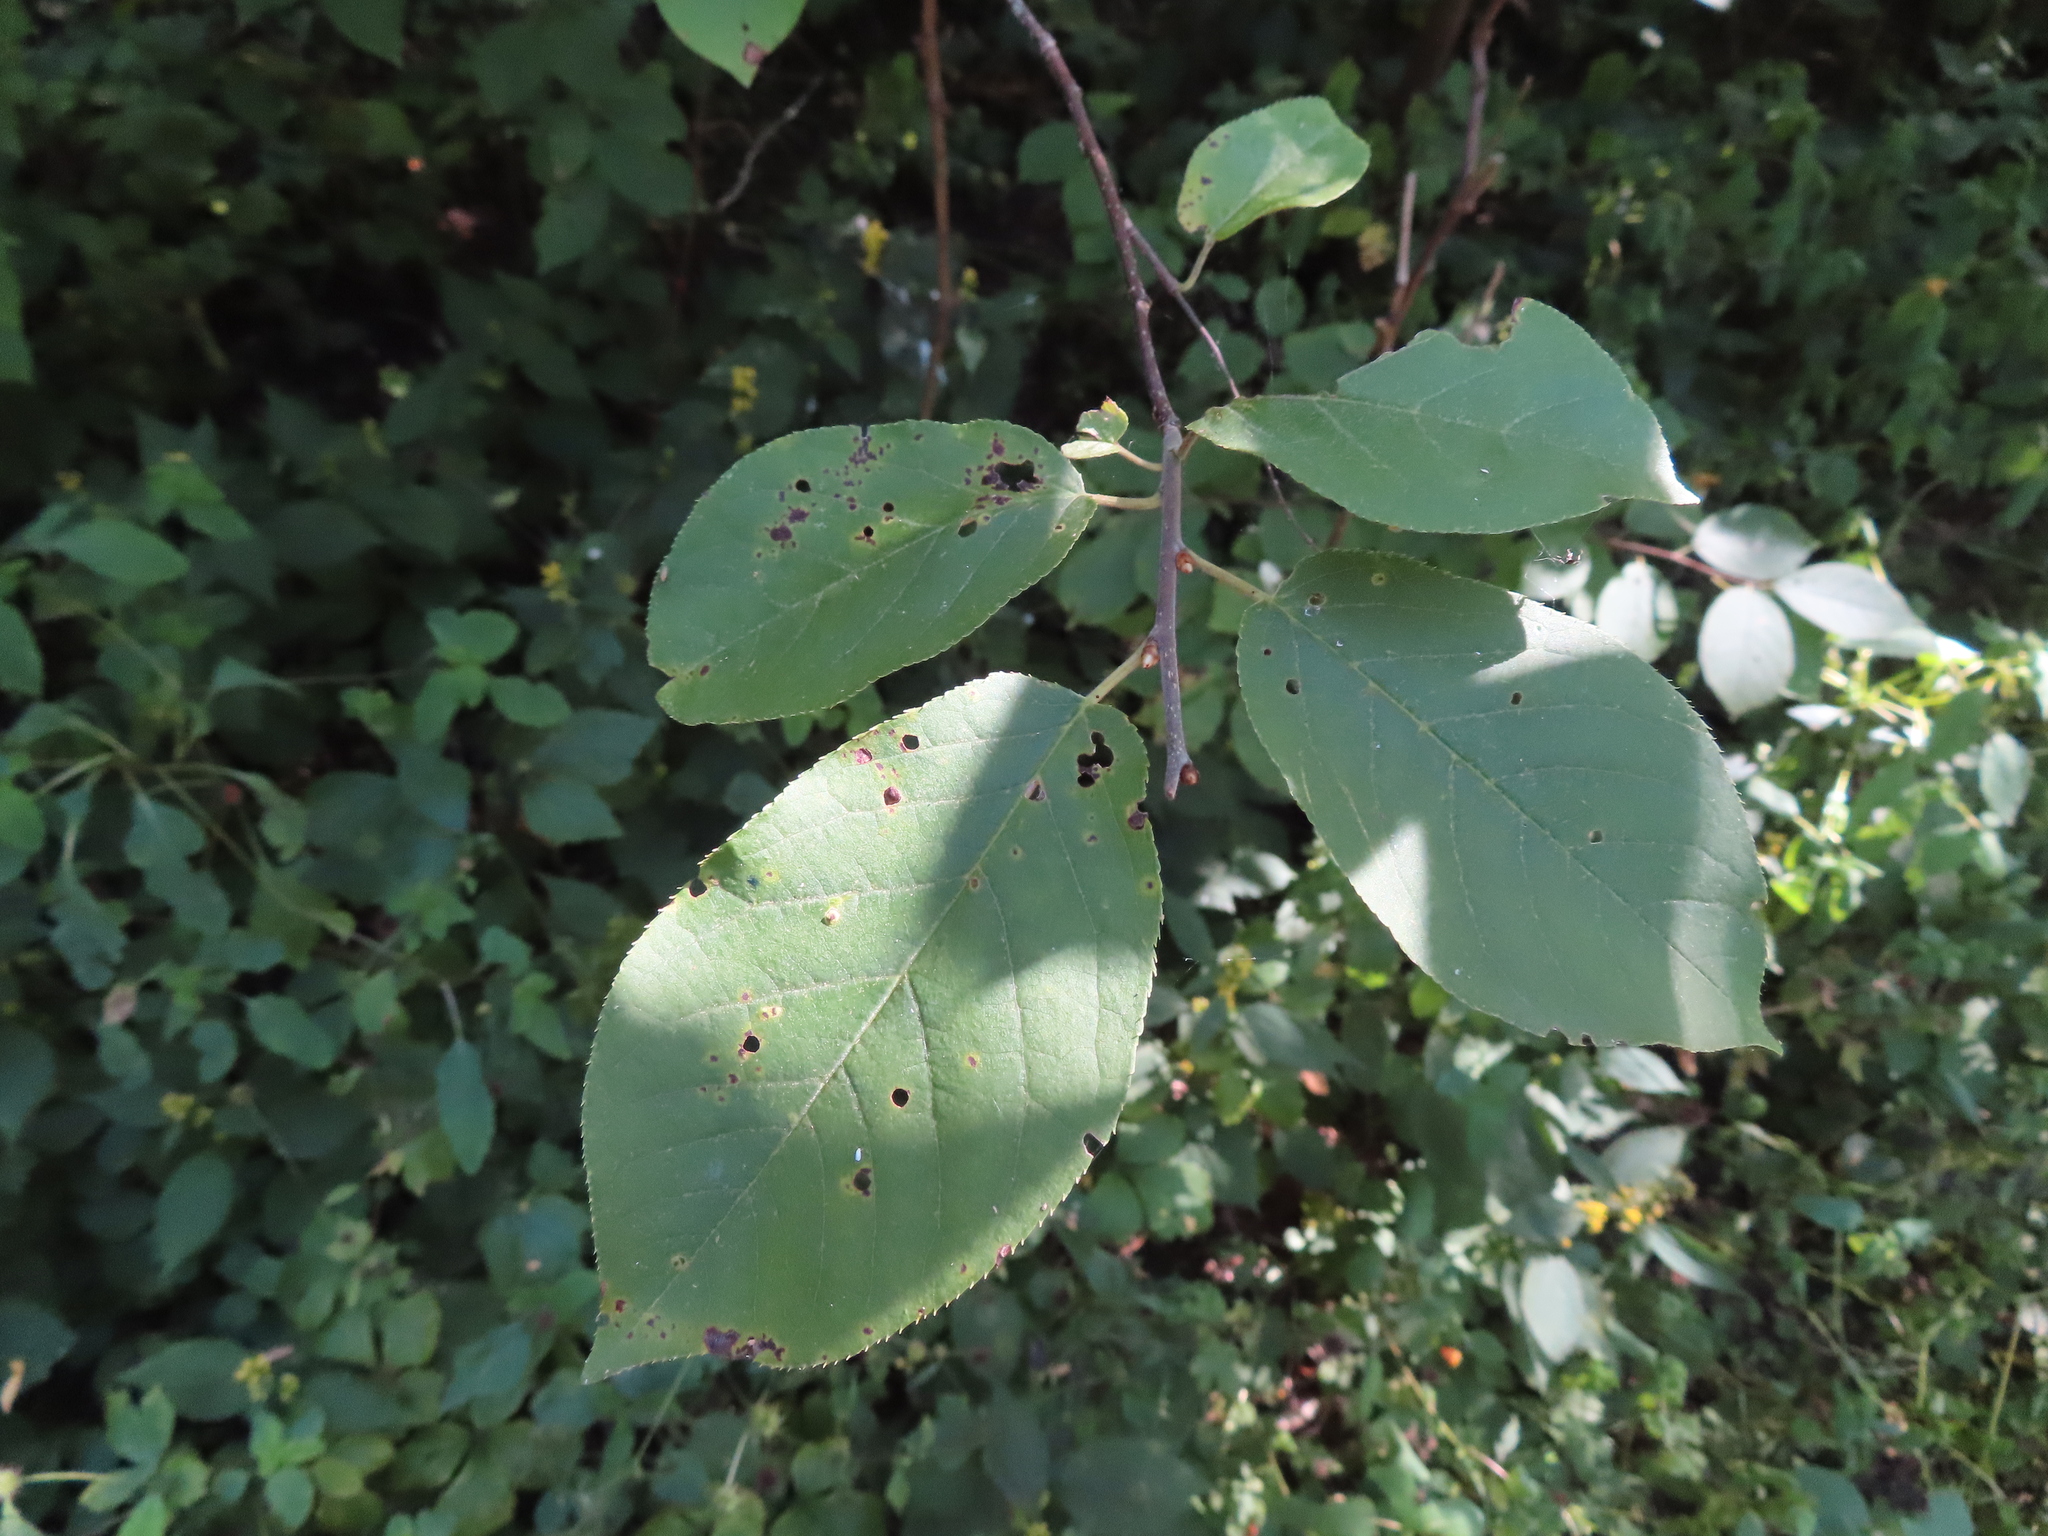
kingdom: Plantae
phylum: Tracheophyta
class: Magnoliopsida
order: Rosales
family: Rosaceae
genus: Prunus
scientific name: Prunus virginiana
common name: Chokecherry
